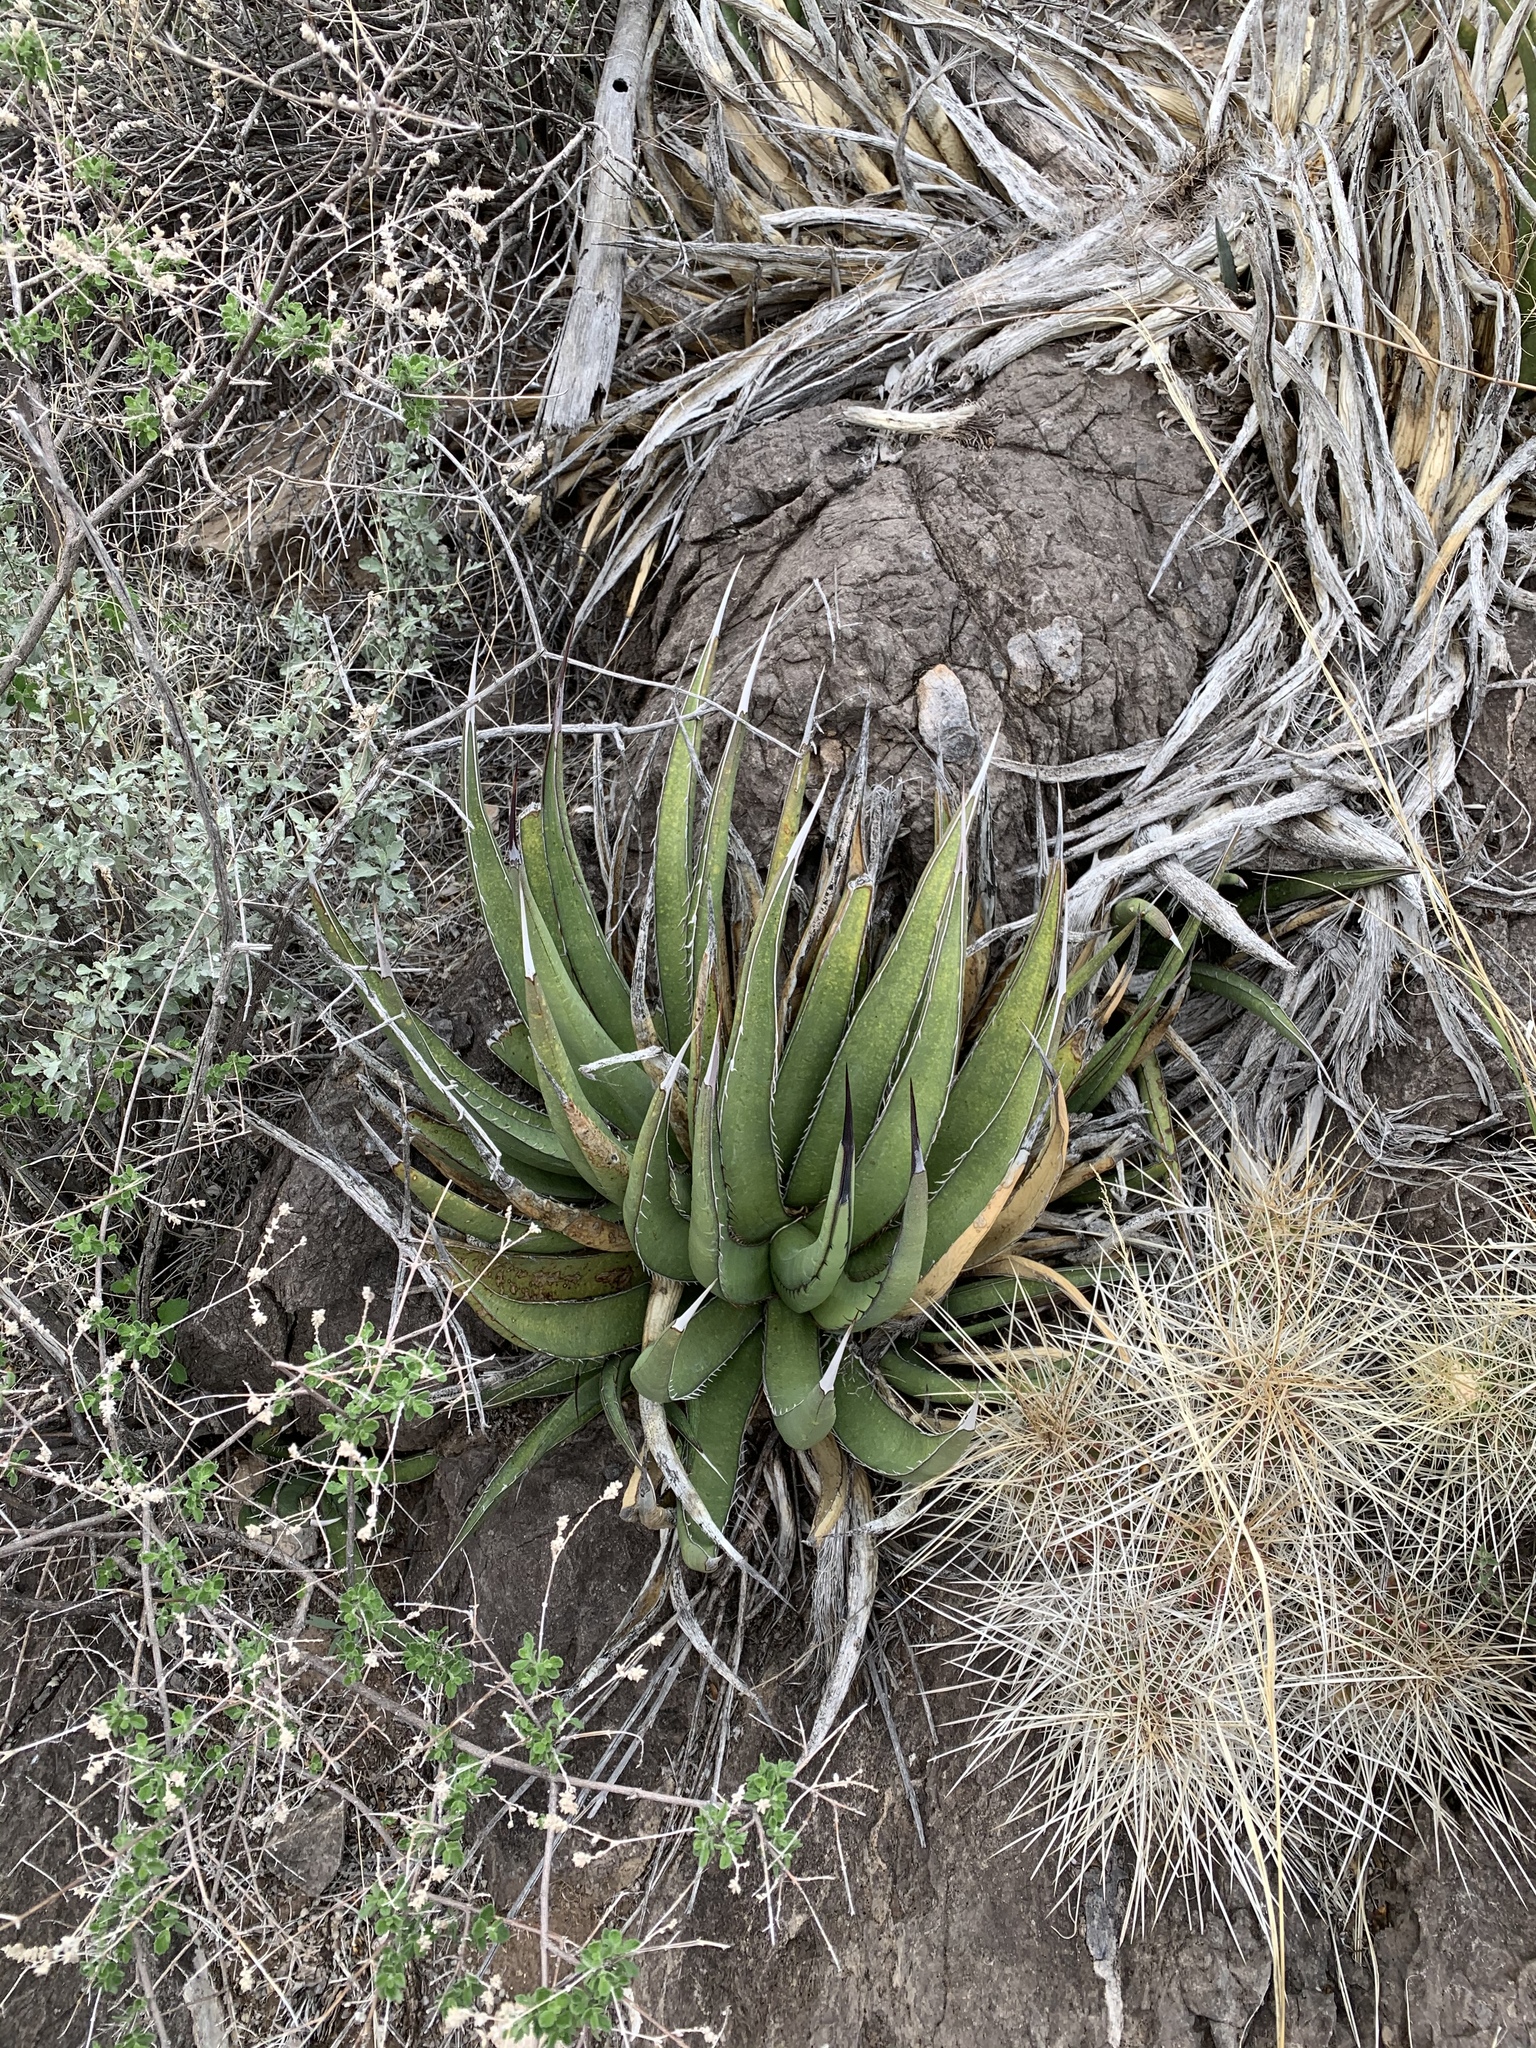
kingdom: Plantae
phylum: Tracheophyta
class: Liliopsida
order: Asparagales
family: Asparagaceae
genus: Agave
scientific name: Agave lechuguilla
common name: Lecheguilla agave
